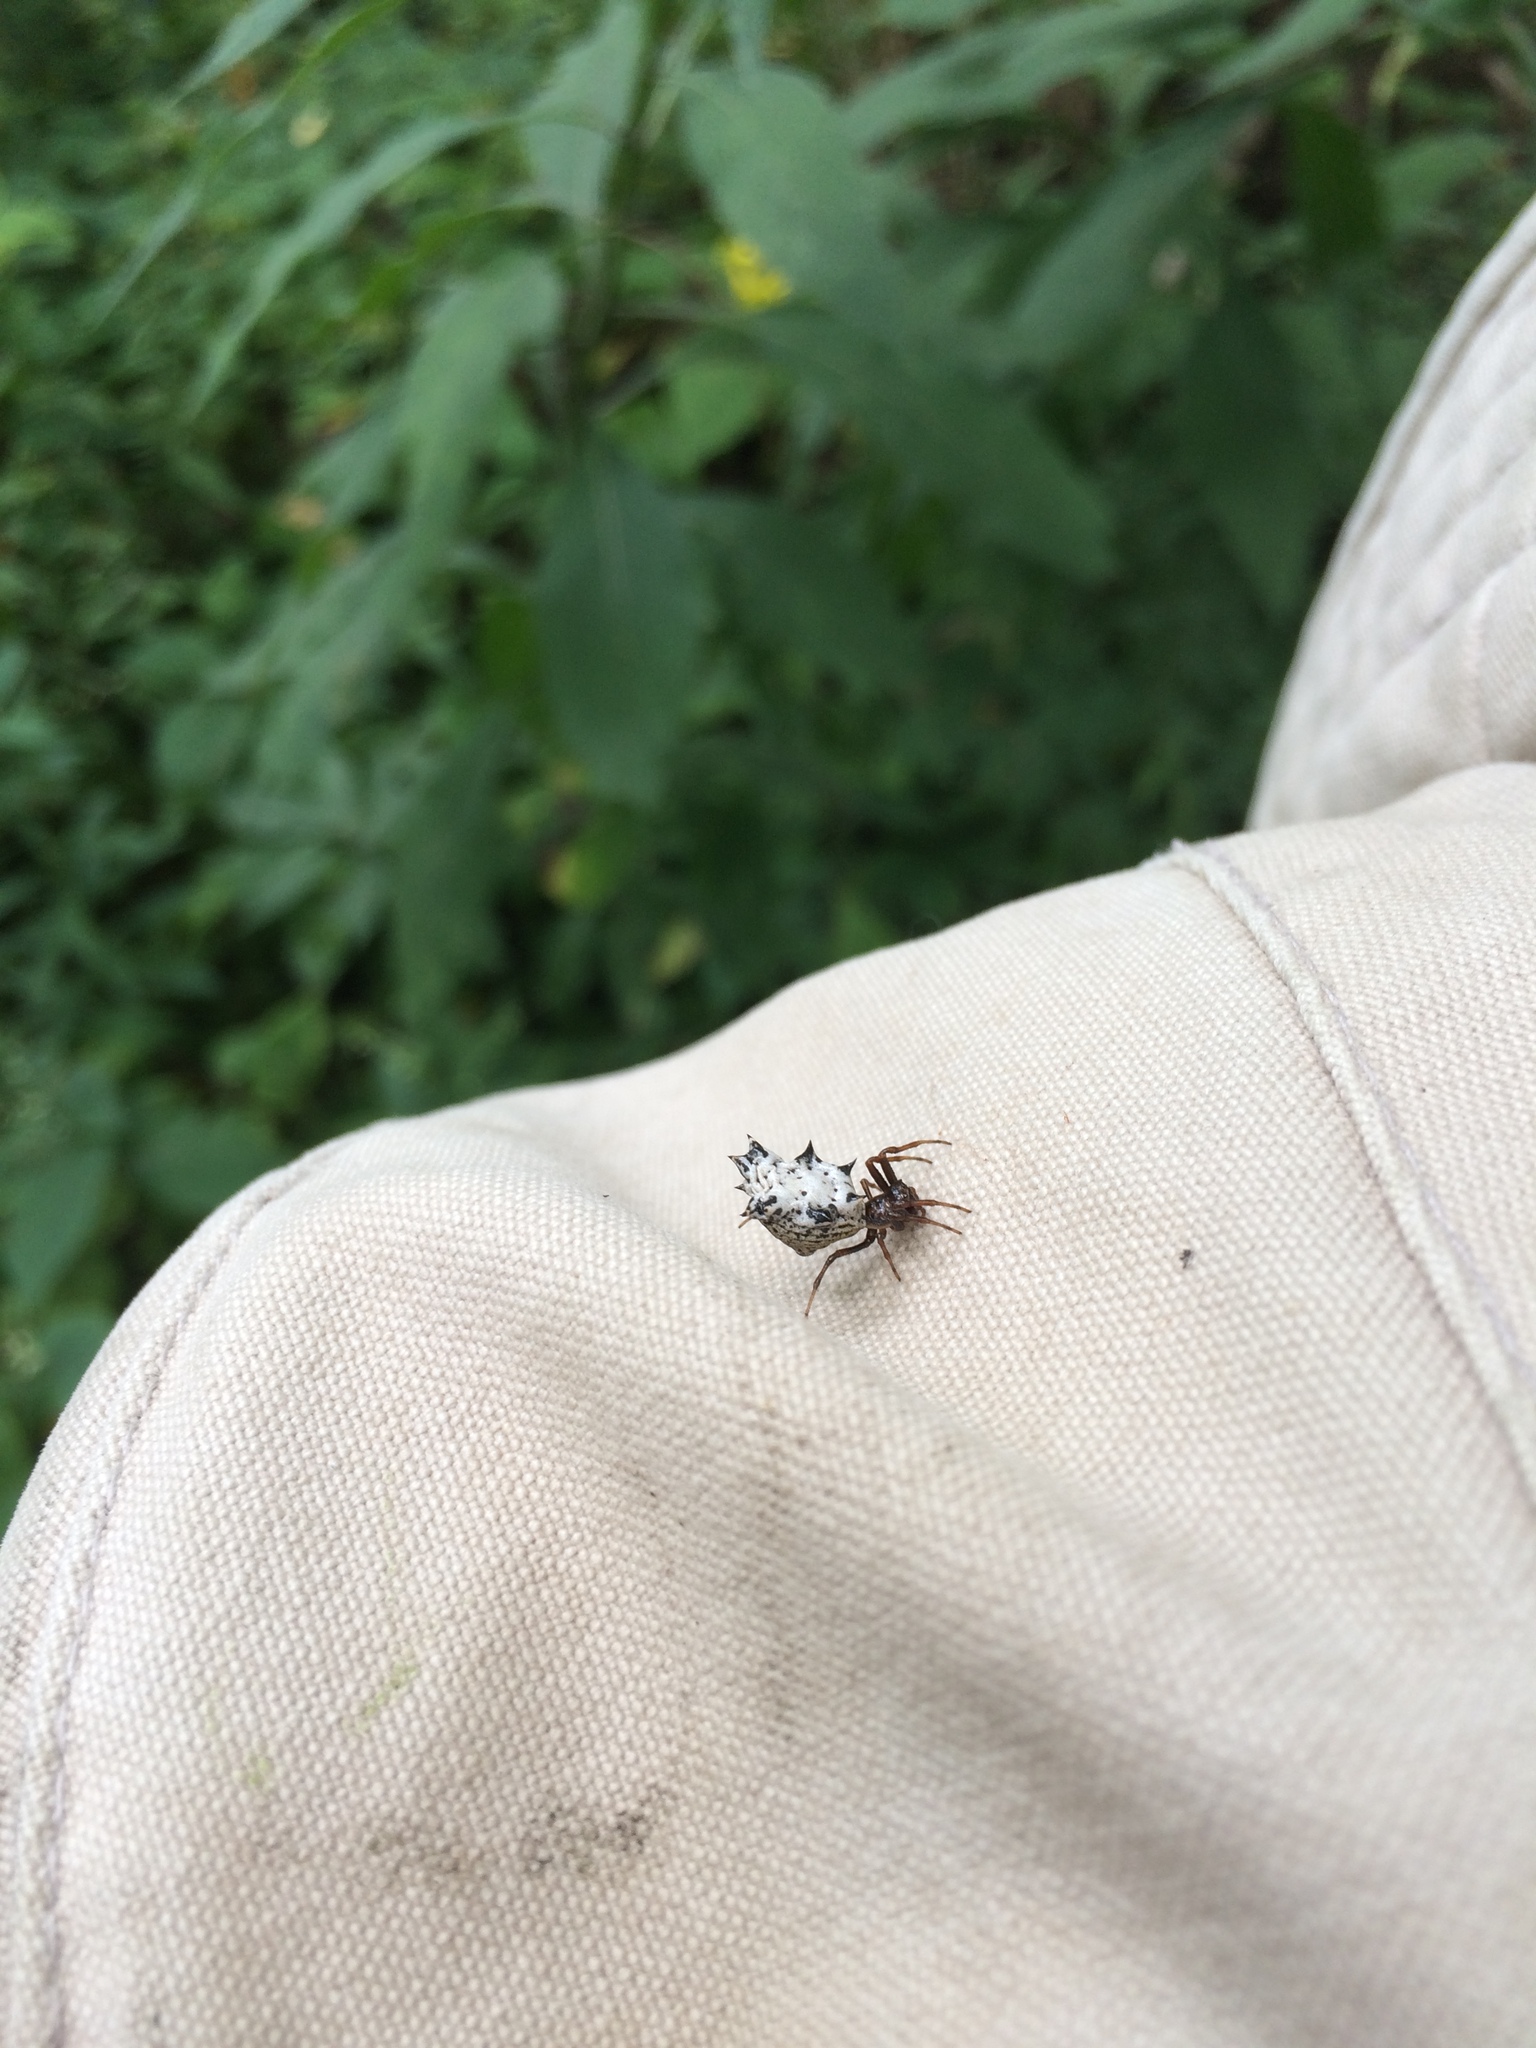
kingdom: Animalia
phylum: Arthropoda
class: Arachnida
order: Araneae
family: Araneidae
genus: Micrathena
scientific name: Micrathena gracilis
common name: Orb weavers
